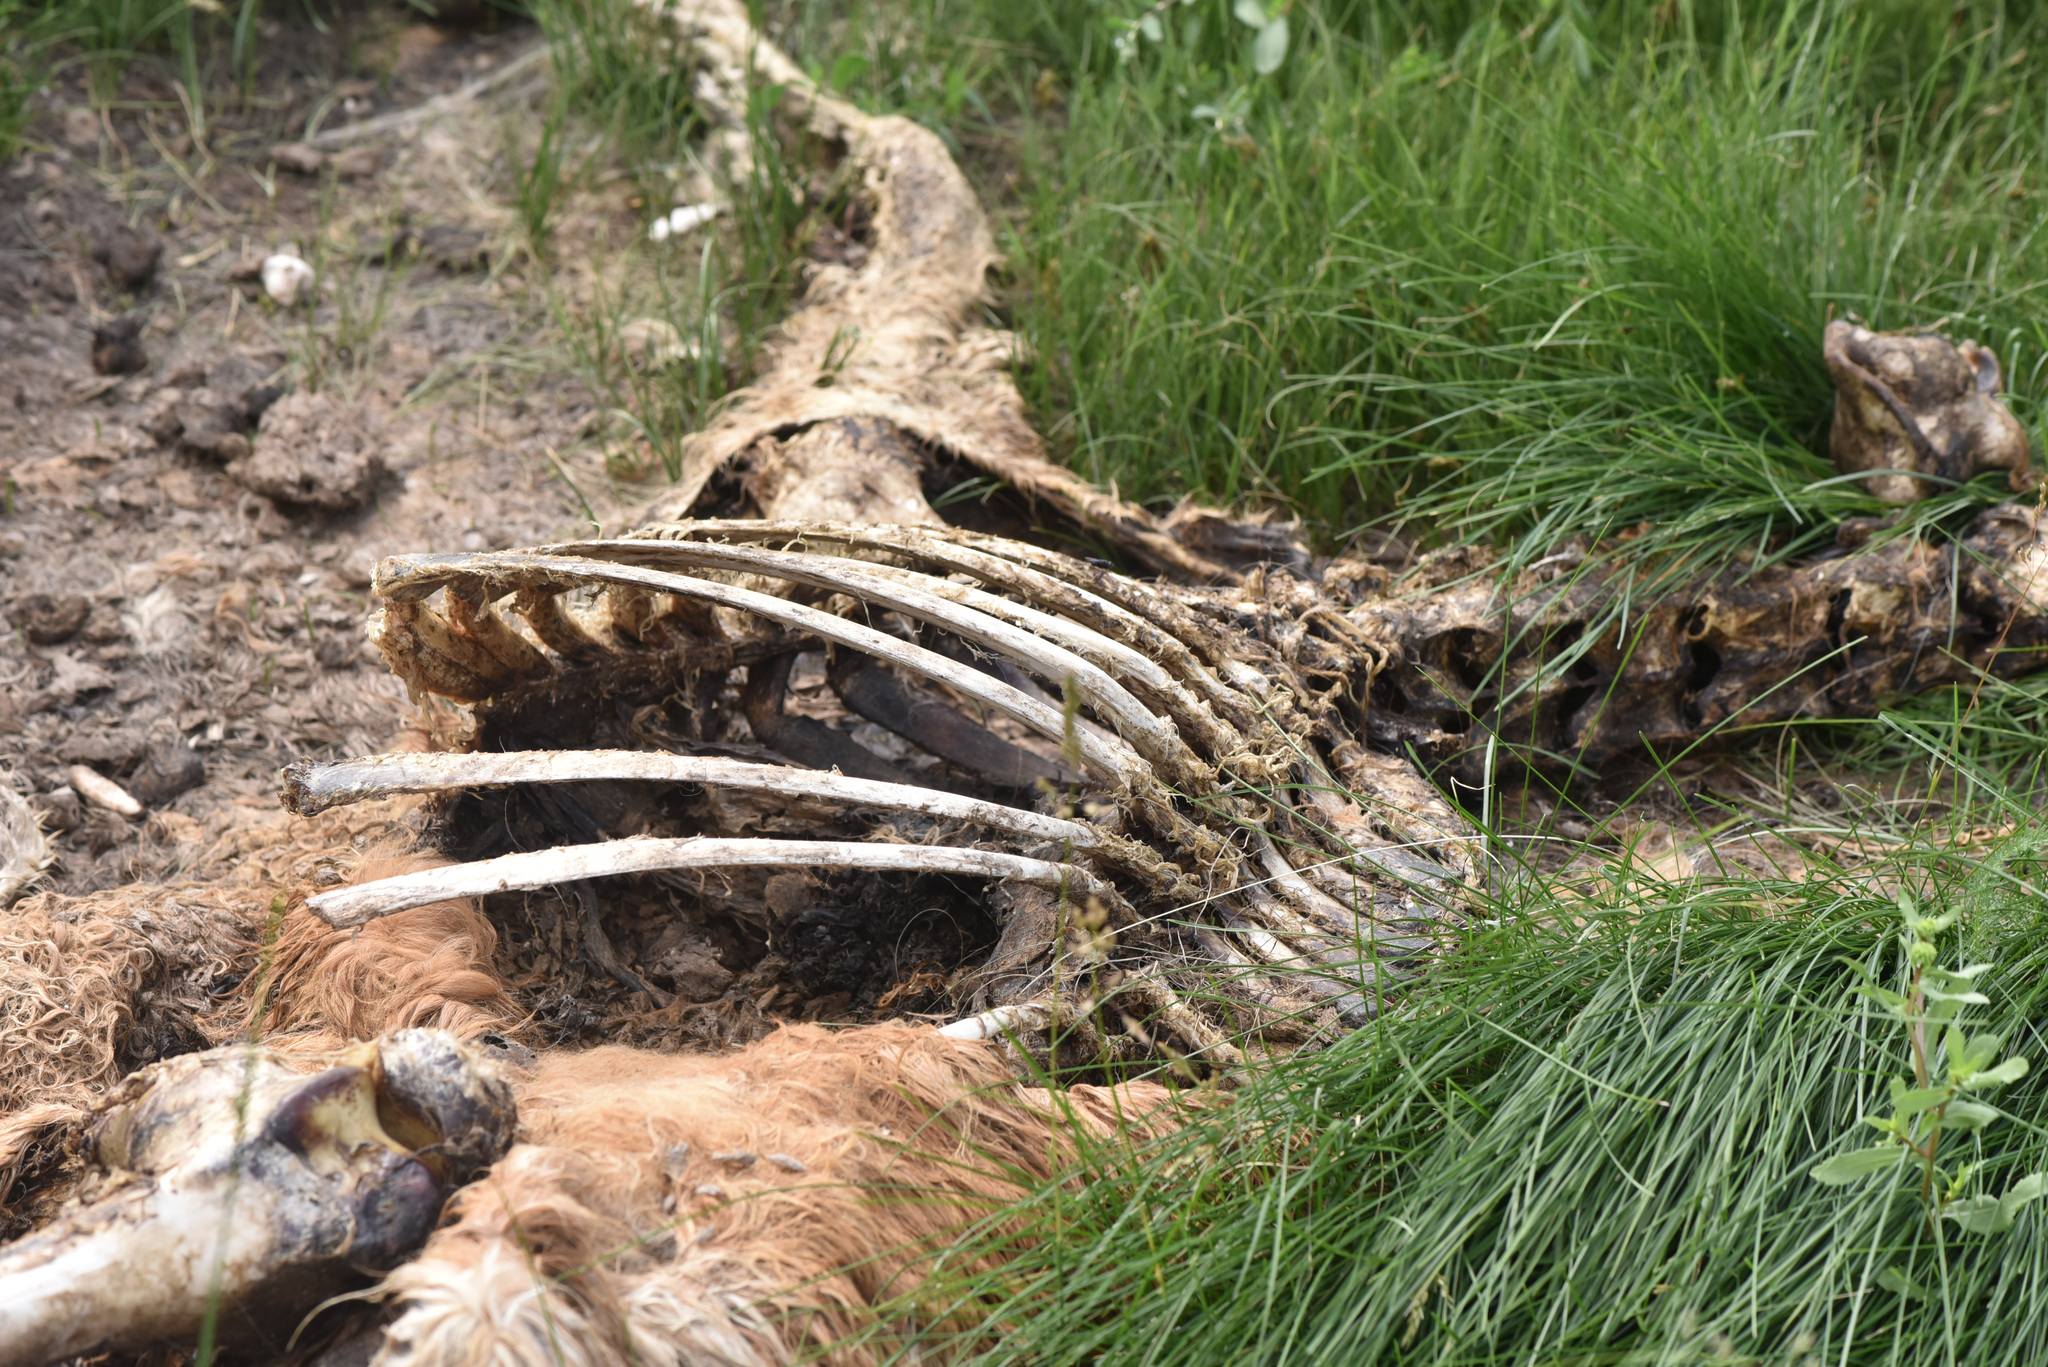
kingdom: Animalia
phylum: Chordata
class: Mammalia
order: Perissodactyla
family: Equidae
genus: Equus
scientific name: Equus caballus
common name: Horse
